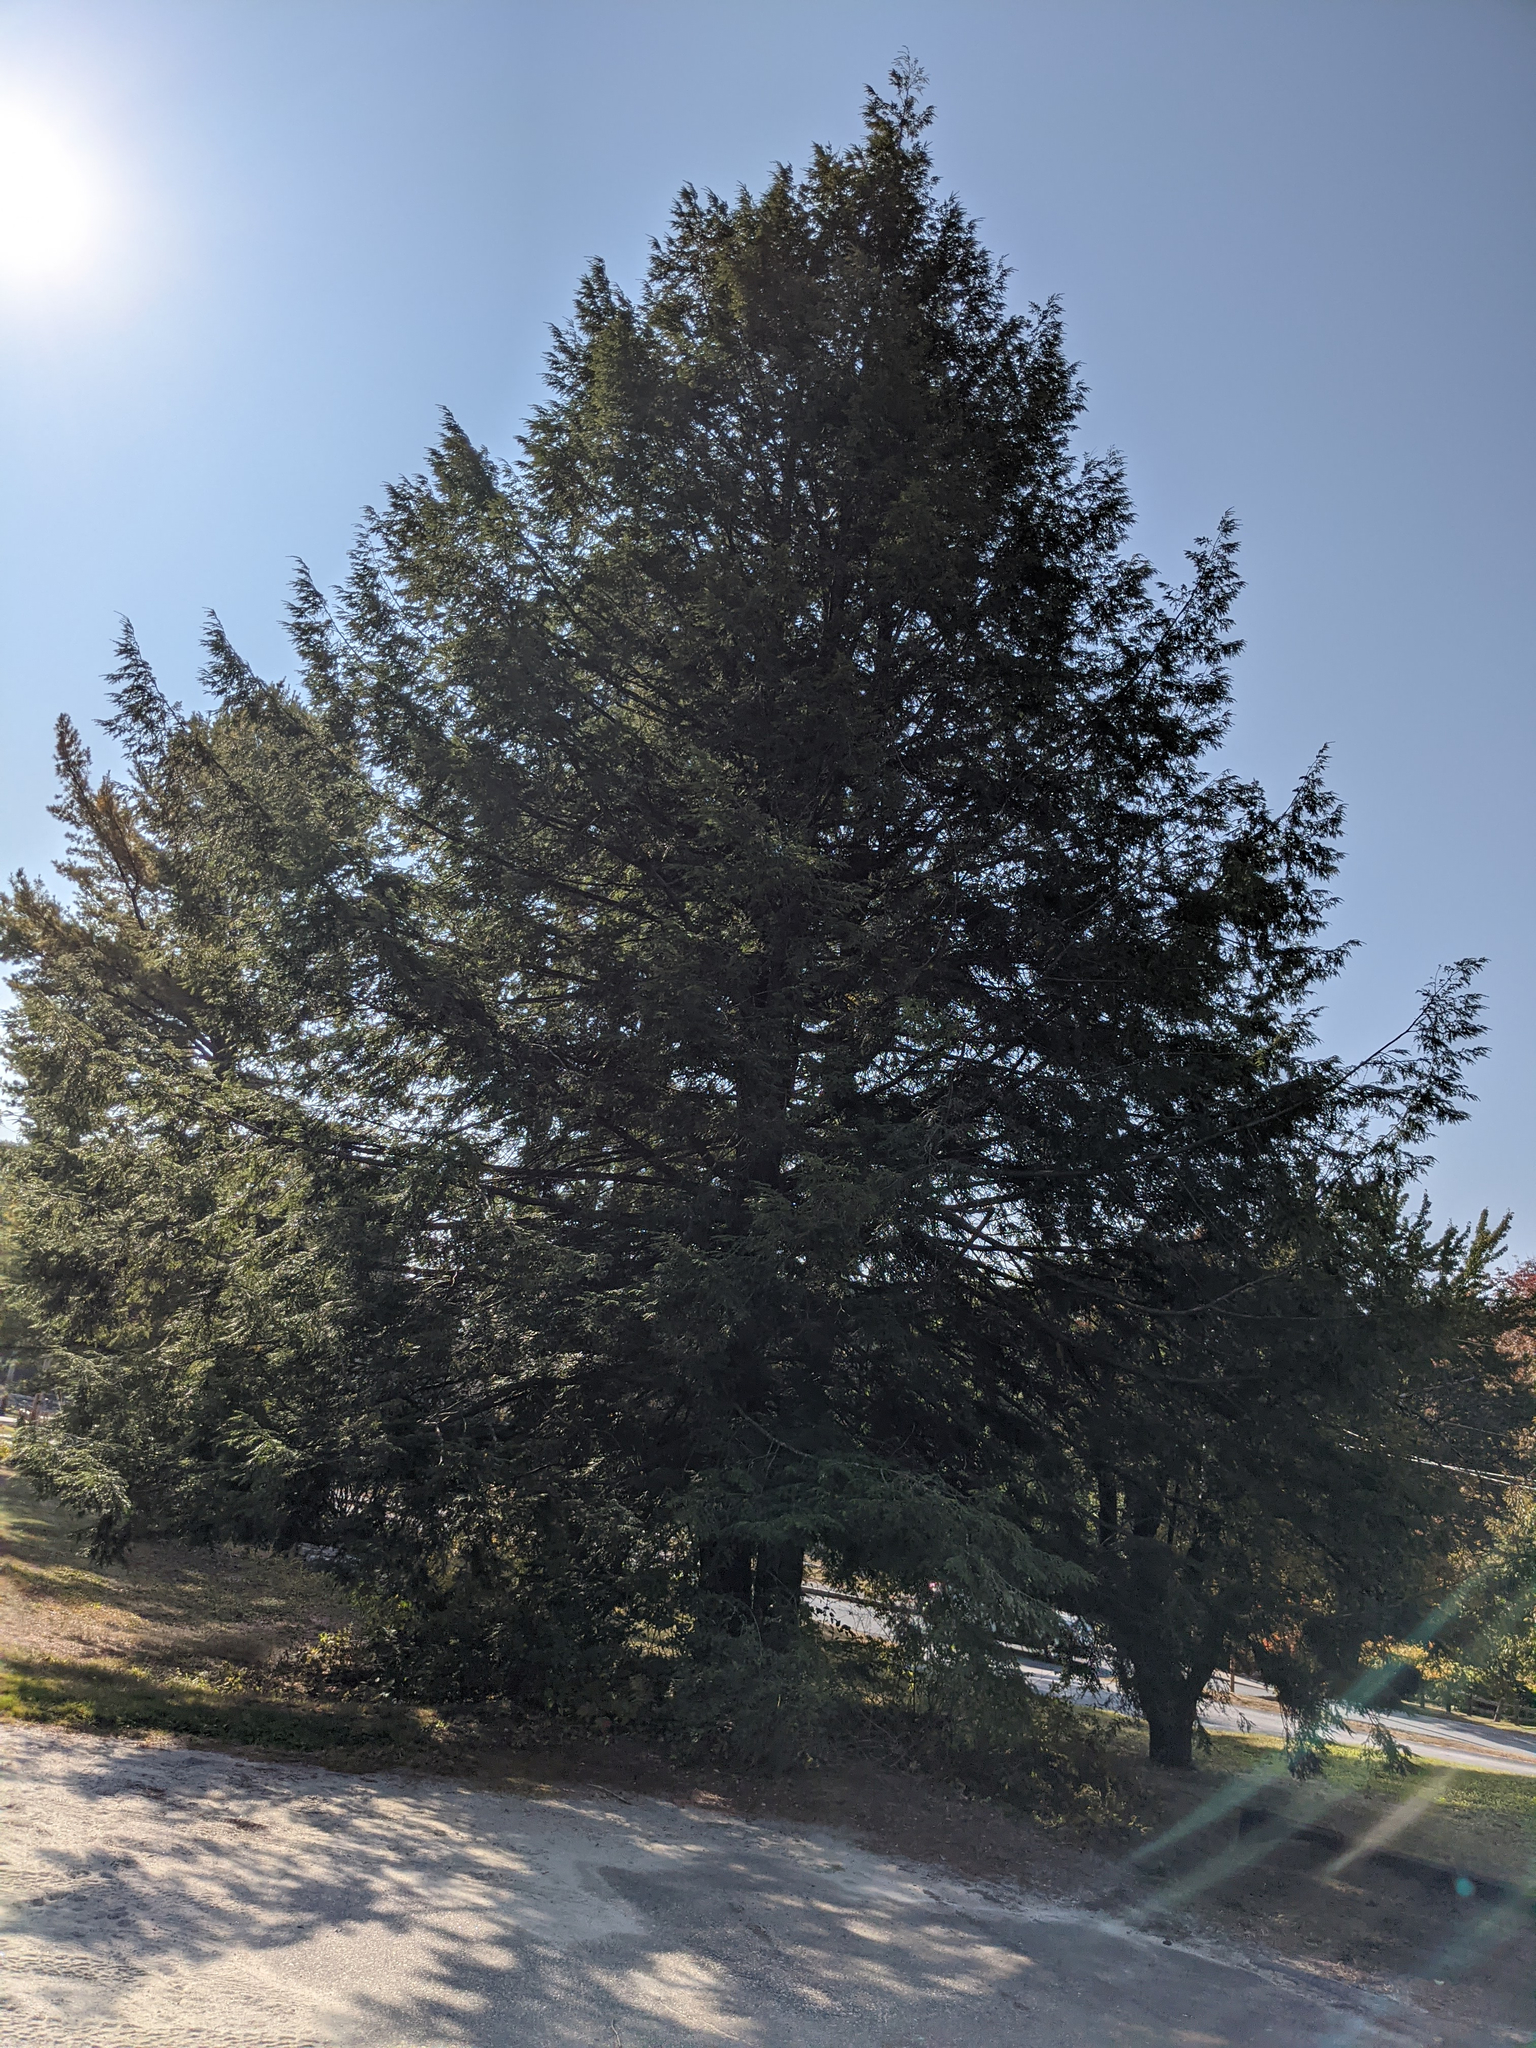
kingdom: Plantae
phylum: Tracheophyta
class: Pinopsida
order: Pinales
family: Pinaceae
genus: Tsuga
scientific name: Tsuga canadensis
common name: Eastern hemlock
